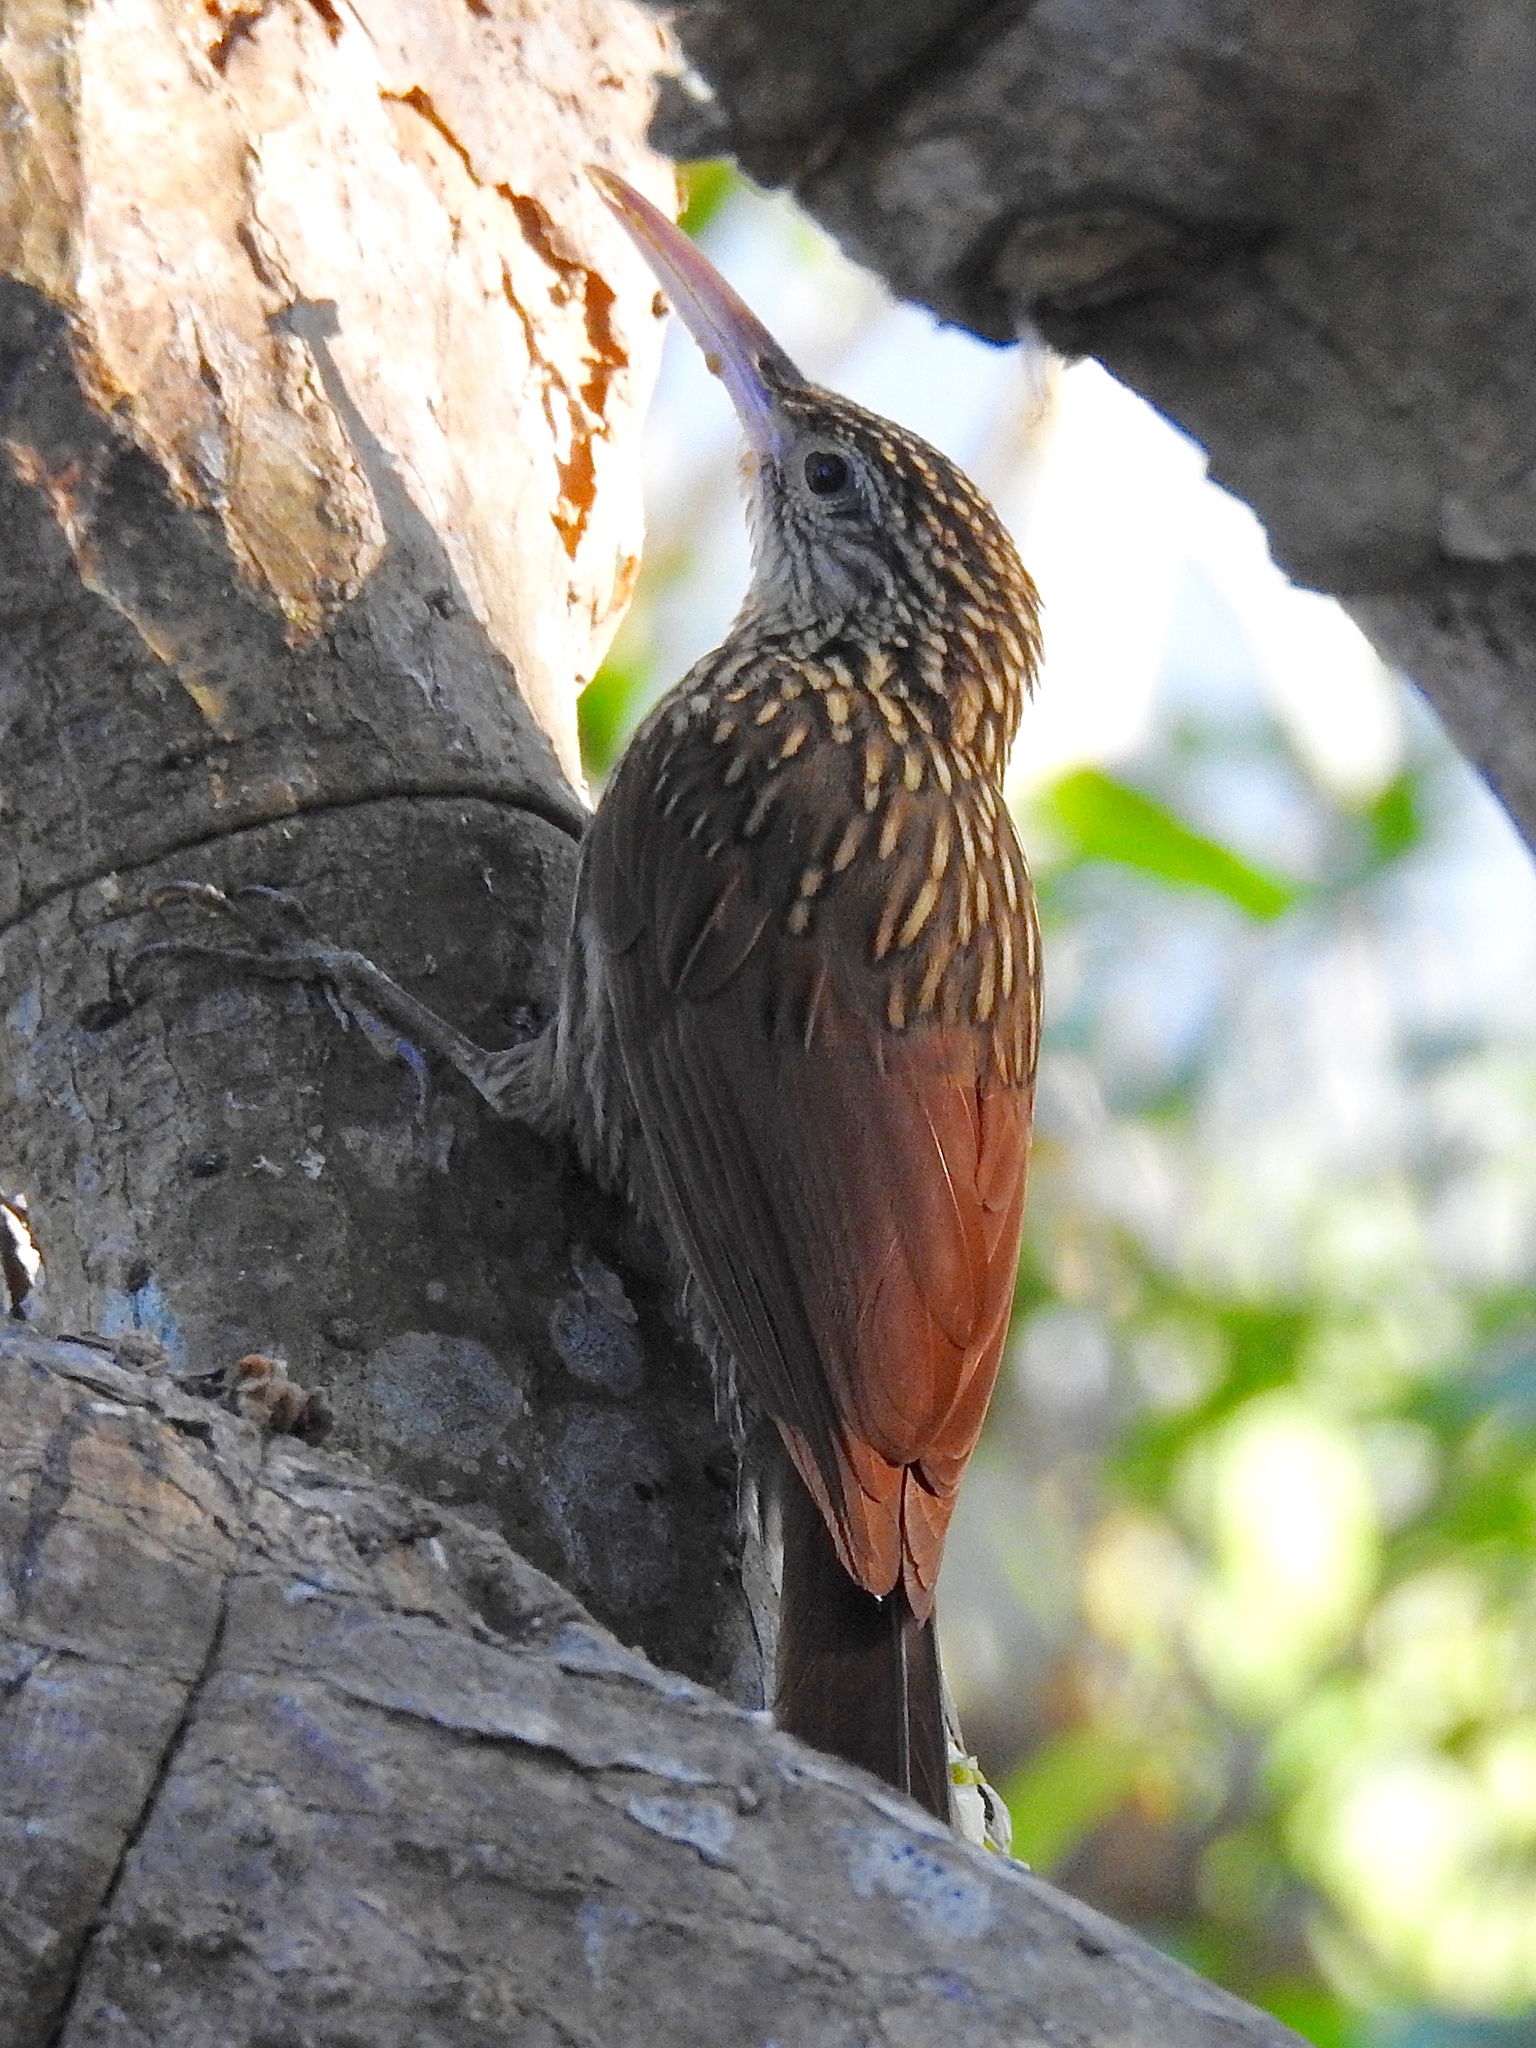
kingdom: Animalia
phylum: Chordata
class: Aves
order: Passeriformes
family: Furnariidae
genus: Xiphorhynchus
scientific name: Xiphorhynchus flavigaster
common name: Ivory-billed woodcreeper
